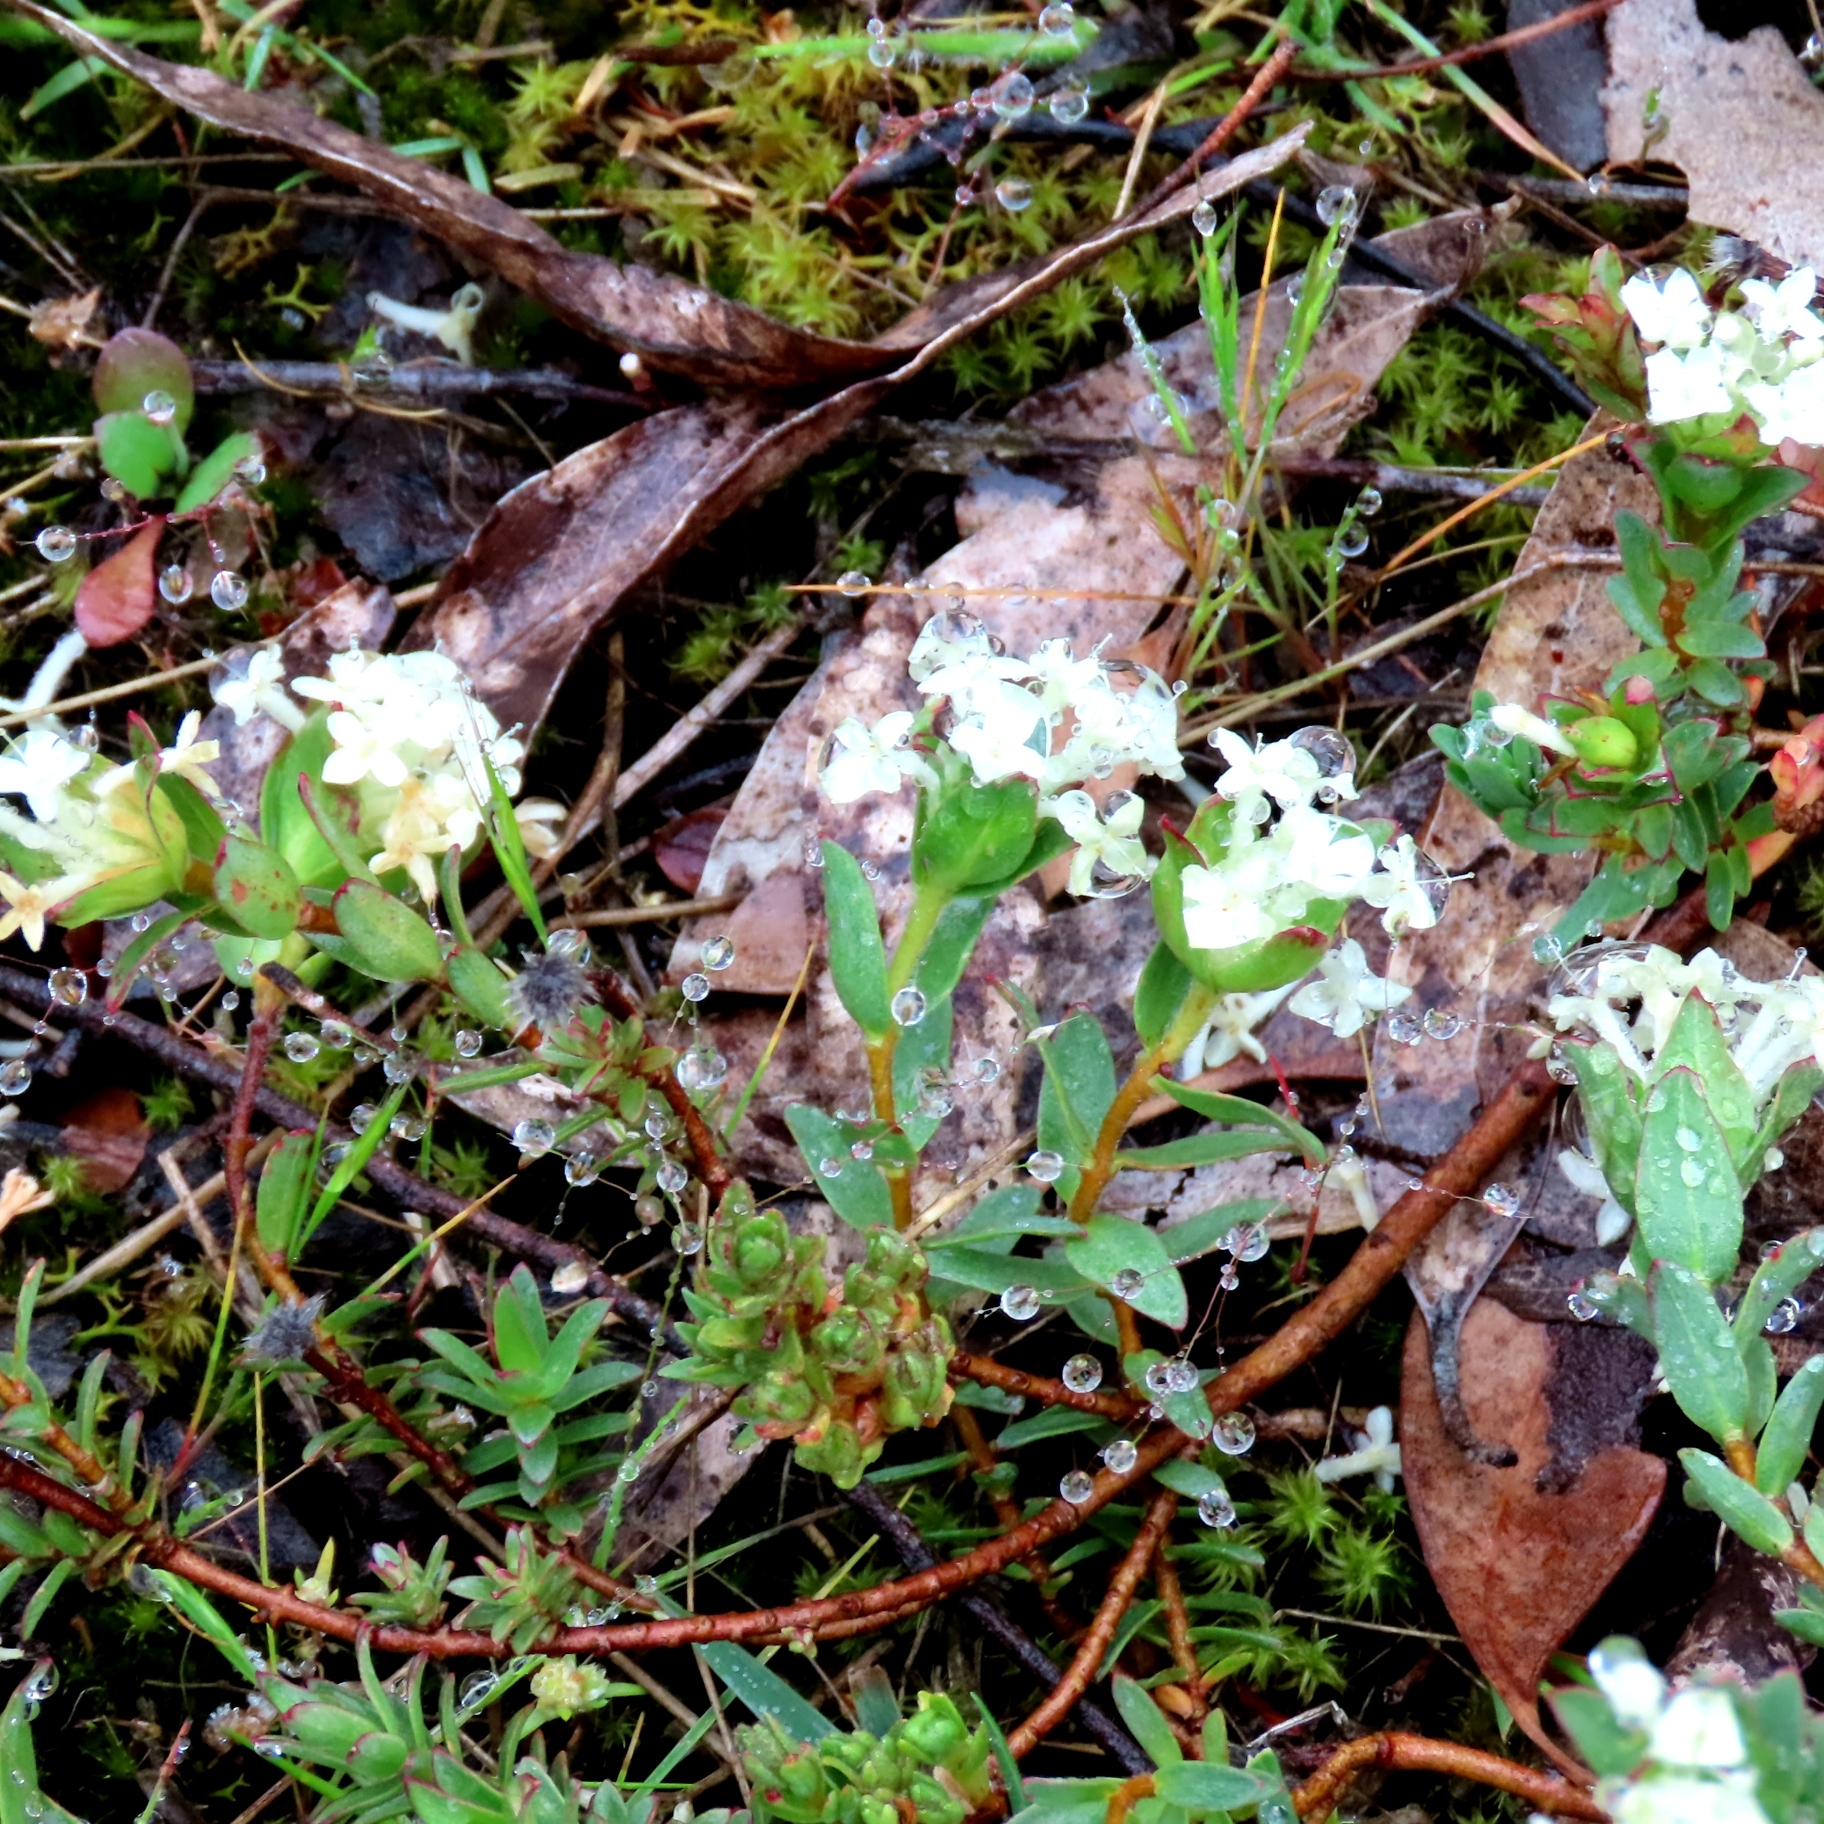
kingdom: Plantae
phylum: Tracheophyta
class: Magnoliopsida
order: Malvales
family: Thymelaeaceae
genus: Pimelea
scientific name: Pimelea humilis
